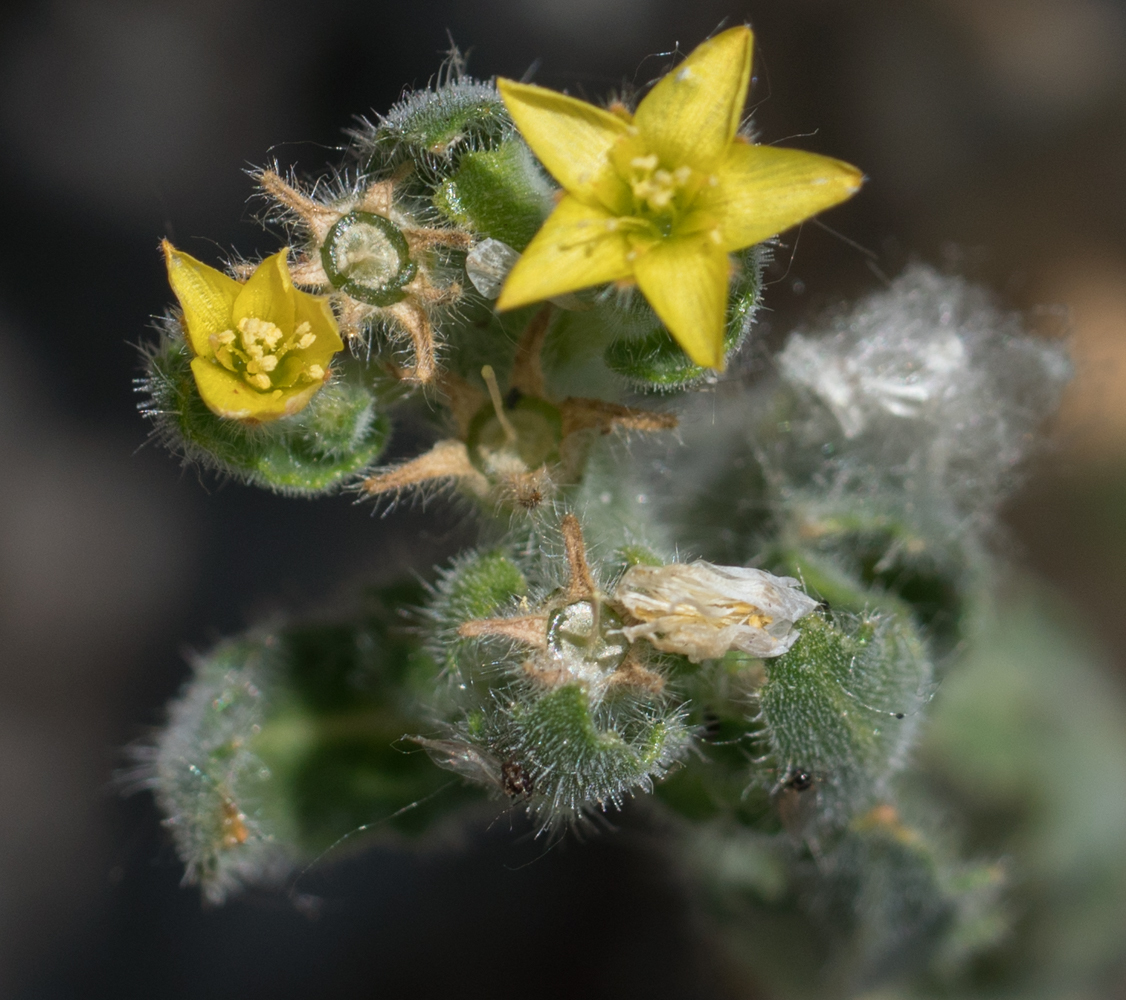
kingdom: Plantae
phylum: Tracheophyta
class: Magnoliopsida
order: Cornales
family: Loasaceae
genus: Mentzelia
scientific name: Mentzelia micrantha
